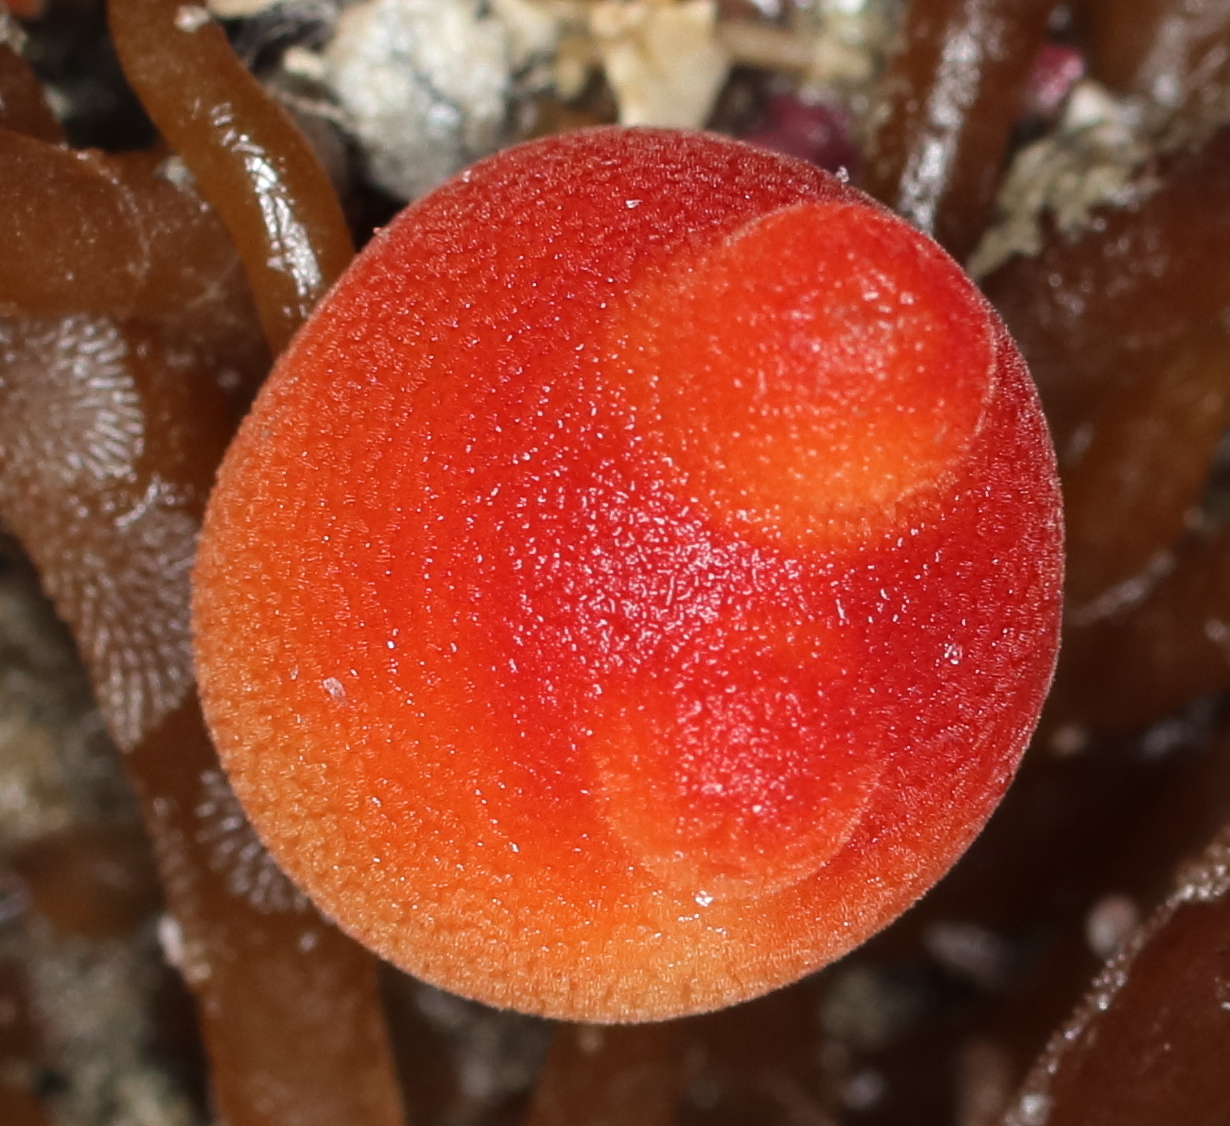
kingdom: Animalia
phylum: Chordata
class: Ascidiacea
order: Stolidobranchia
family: Pyuridae
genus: Halocynthia
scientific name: Halocynthia aurantium
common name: Sea peach
